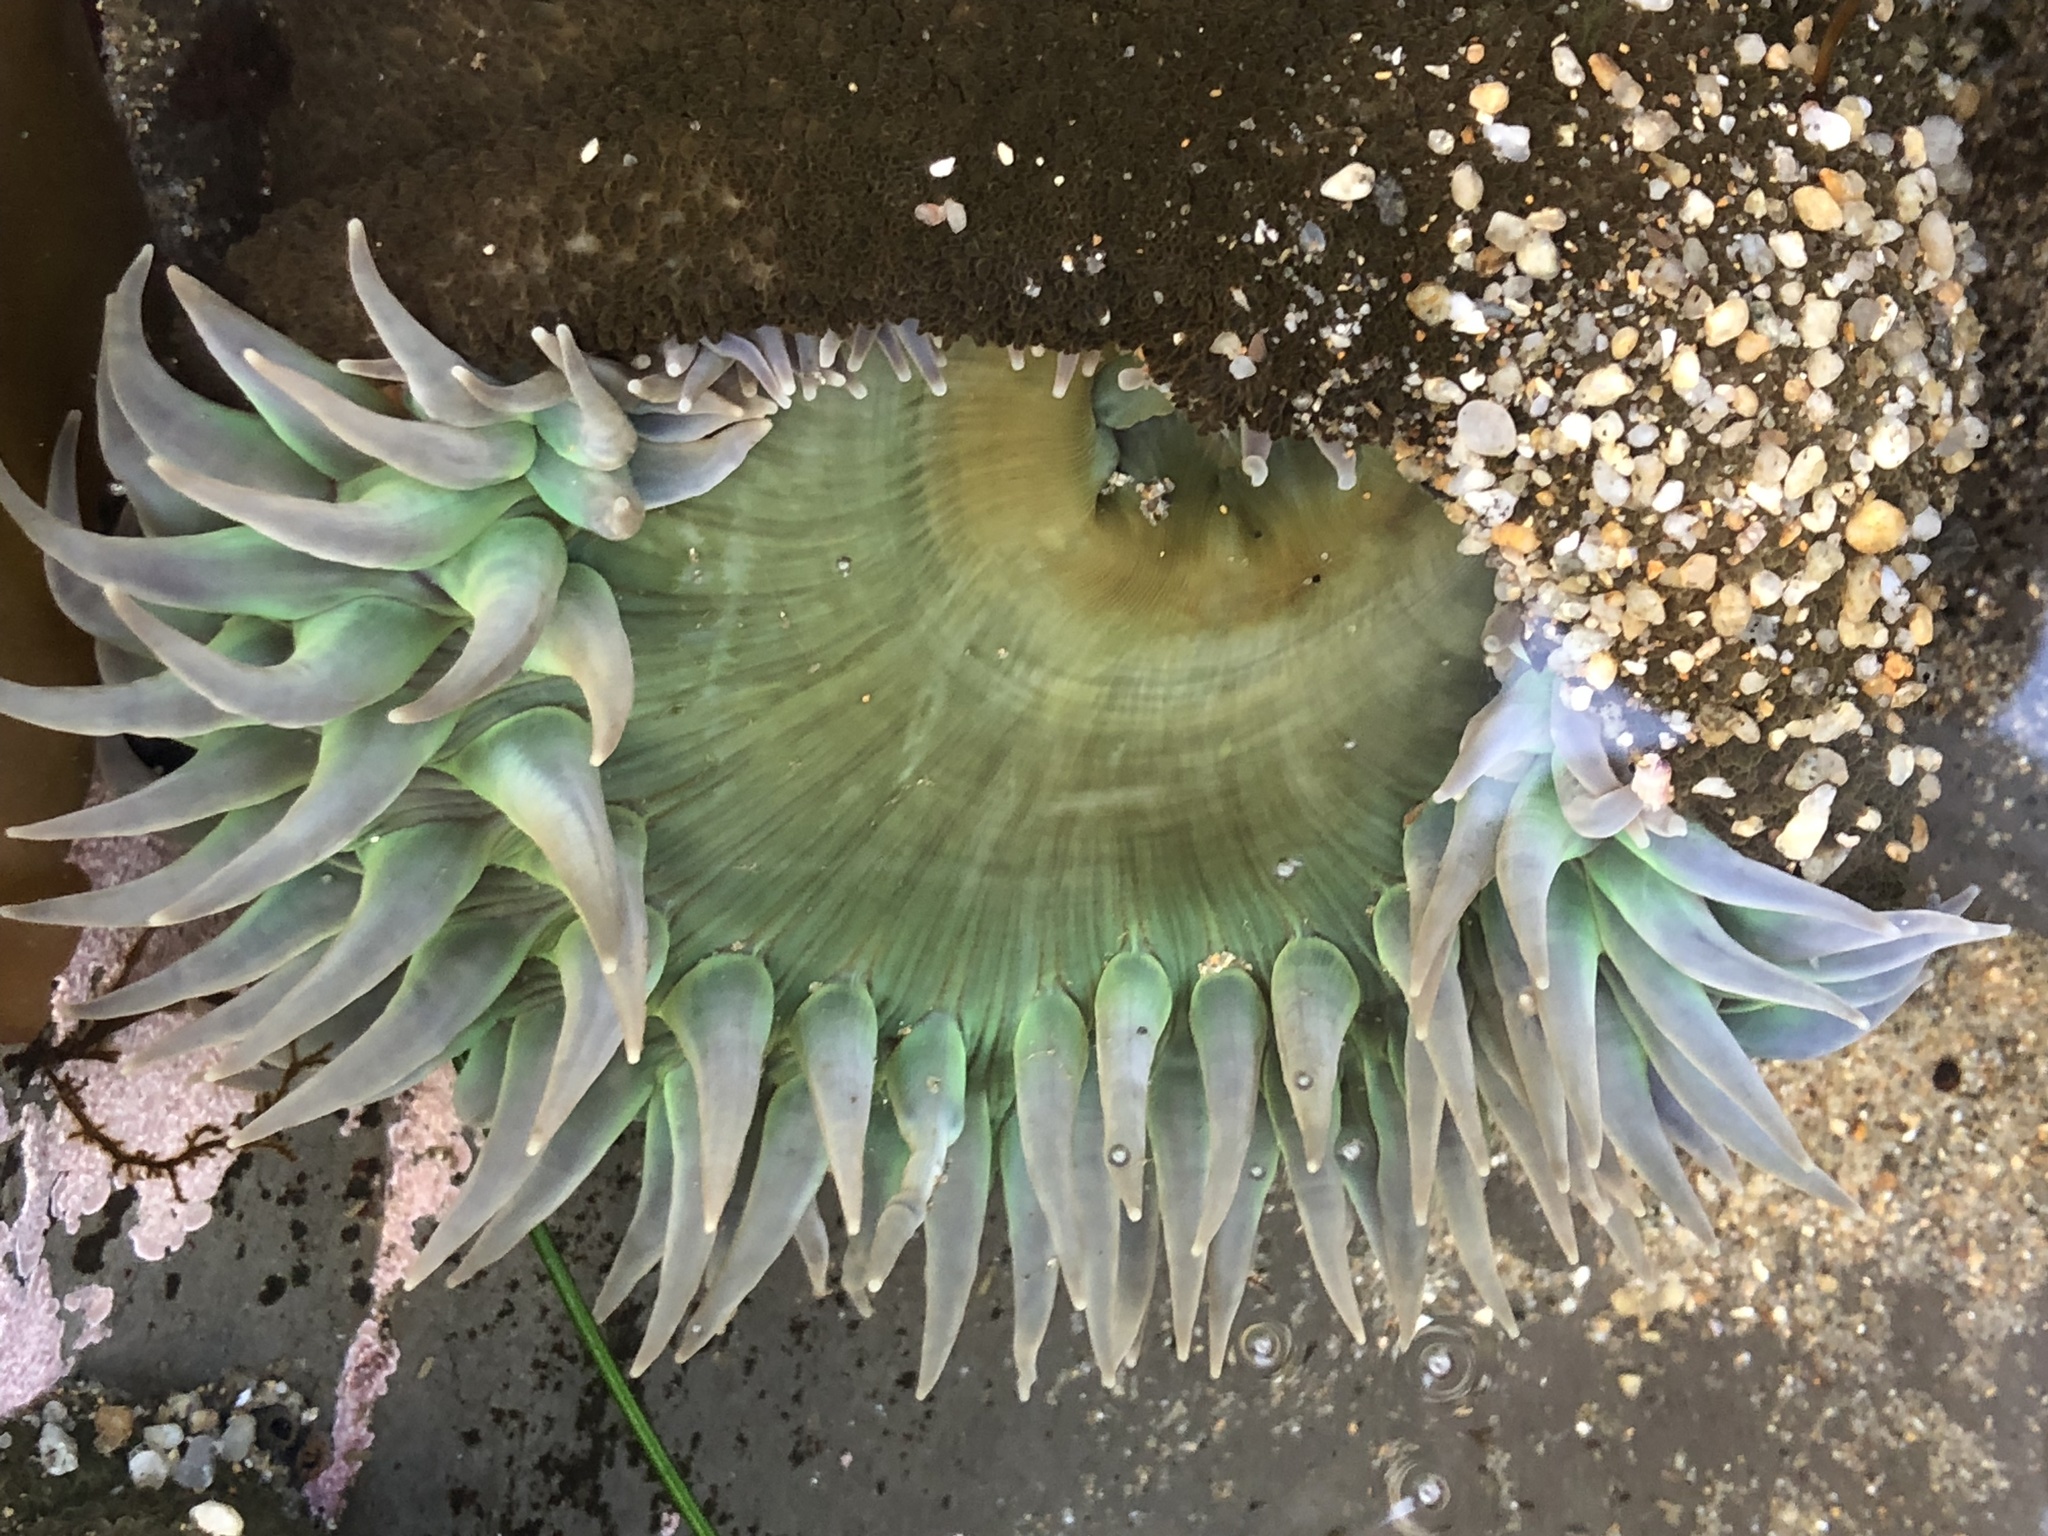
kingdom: Animalia
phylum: Cnidaria
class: Anthozoa
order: Actiniaria
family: Actiniidae
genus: Anthopleura
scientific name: Anthopleura xanthogrammica
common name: Giant green anemone
